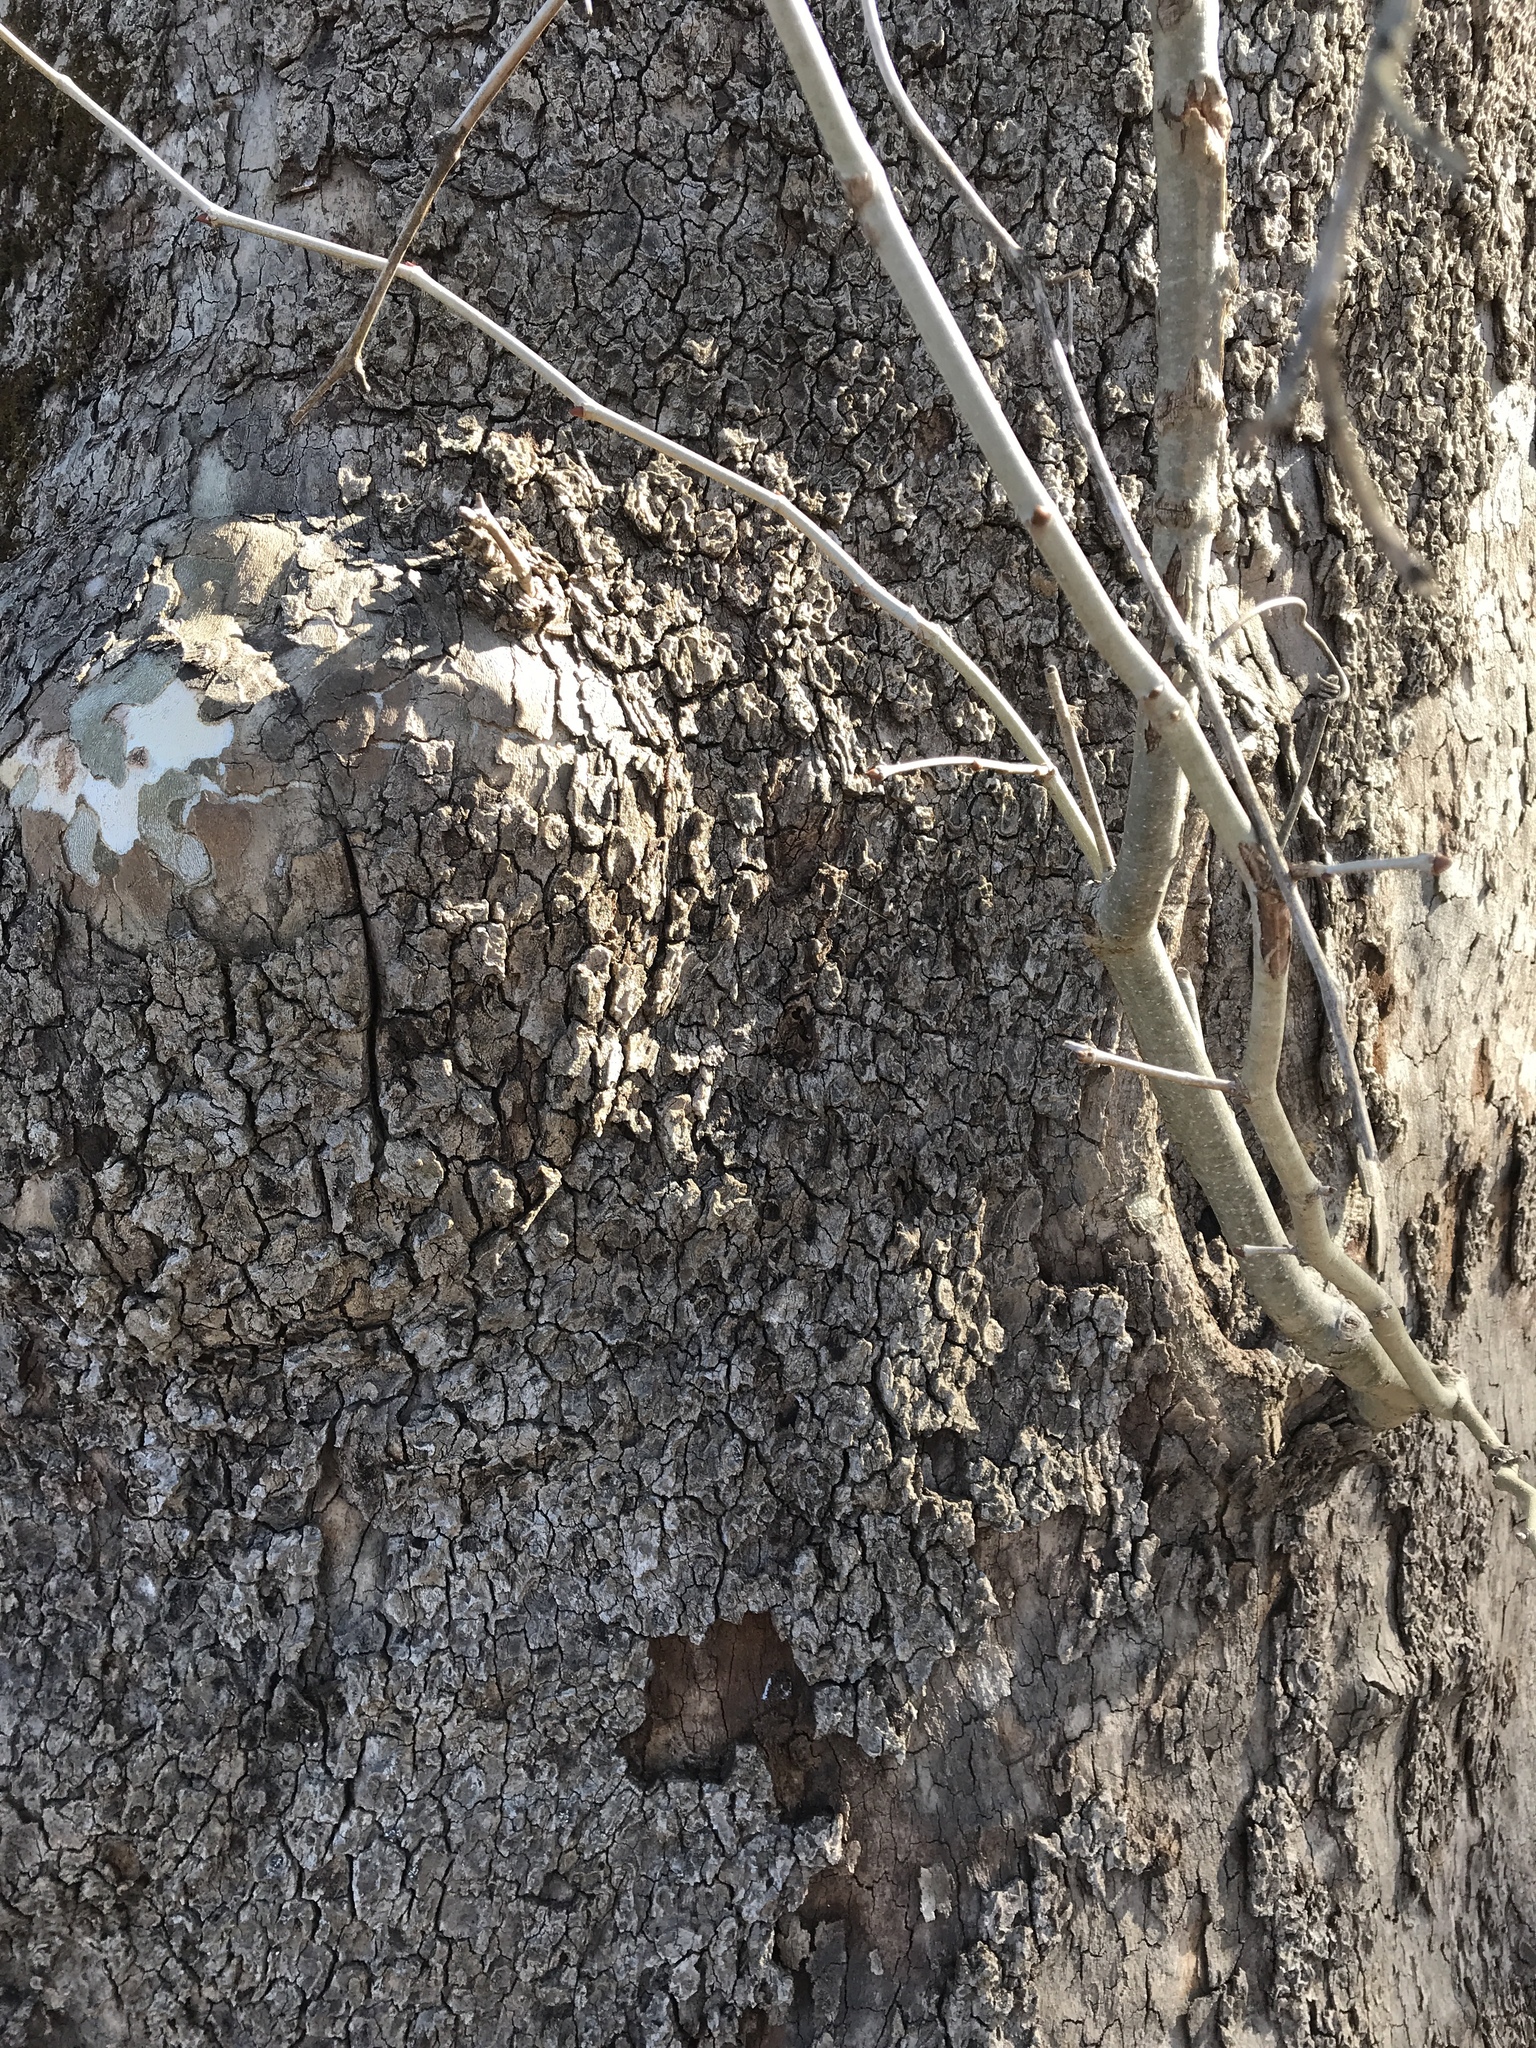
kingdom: Plantae
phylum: Tracheophyta
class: Magnoliopsida
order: Proteales
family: Platanaceae
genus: Platanus
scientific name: Platanus occidentalis
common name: American sycamore
